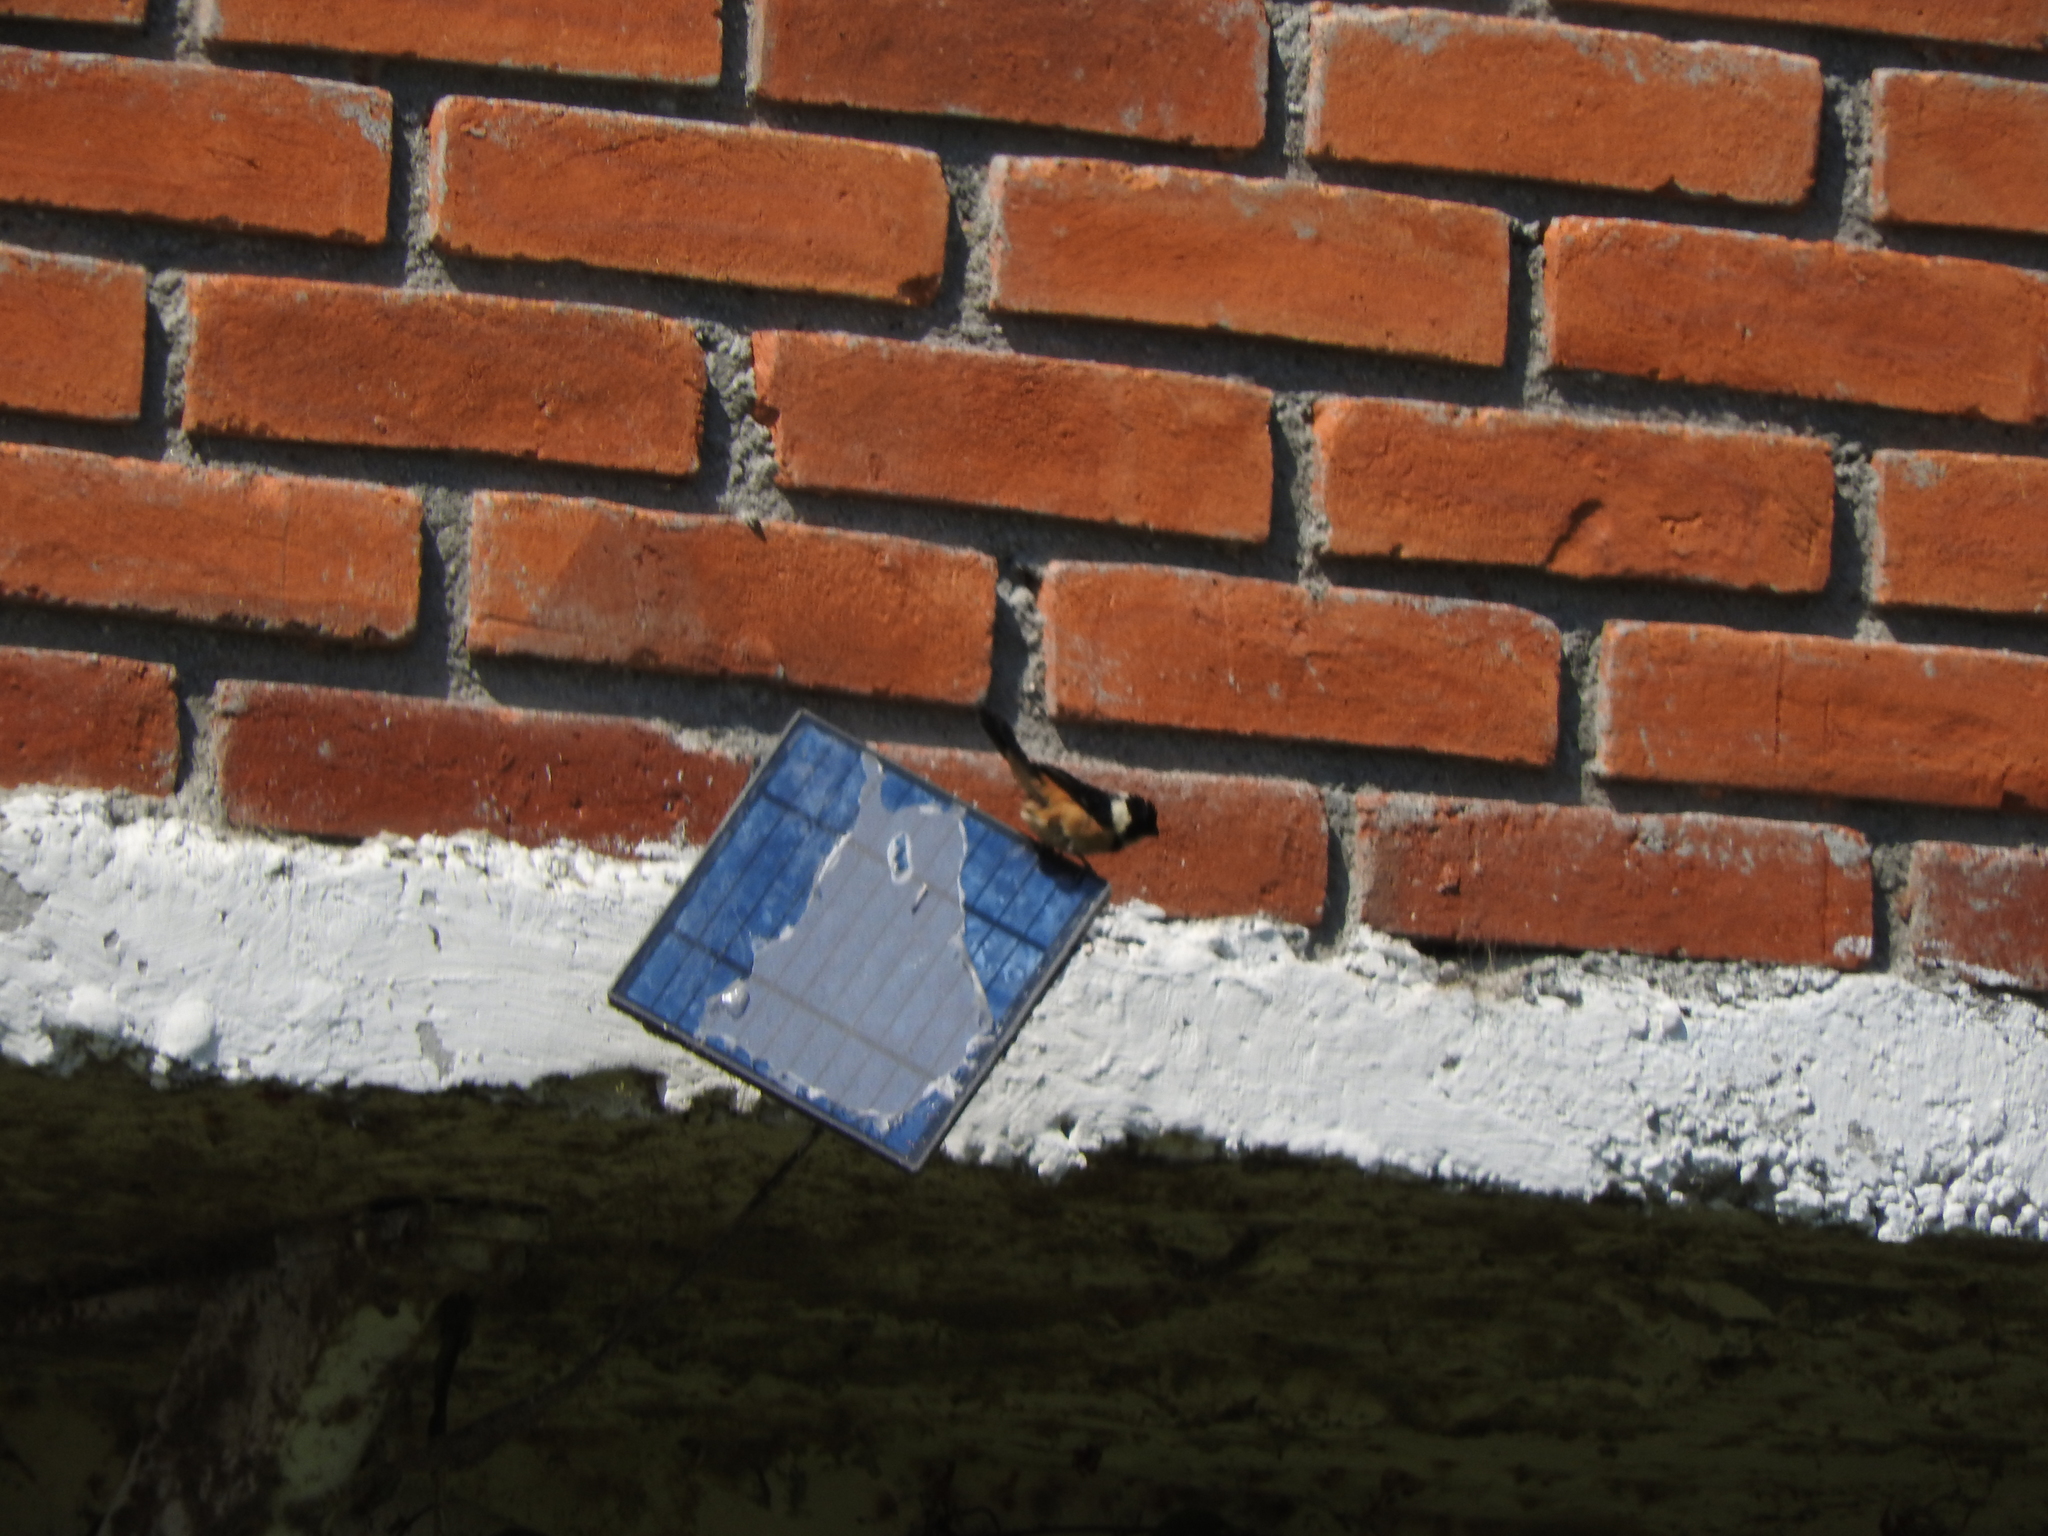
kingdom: Animalia
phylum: Chordata
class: Aves
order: Passeriformes
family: Thraupidae
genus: Sporophila
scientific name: Sporophila torqueola
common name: White-collared seedeater
